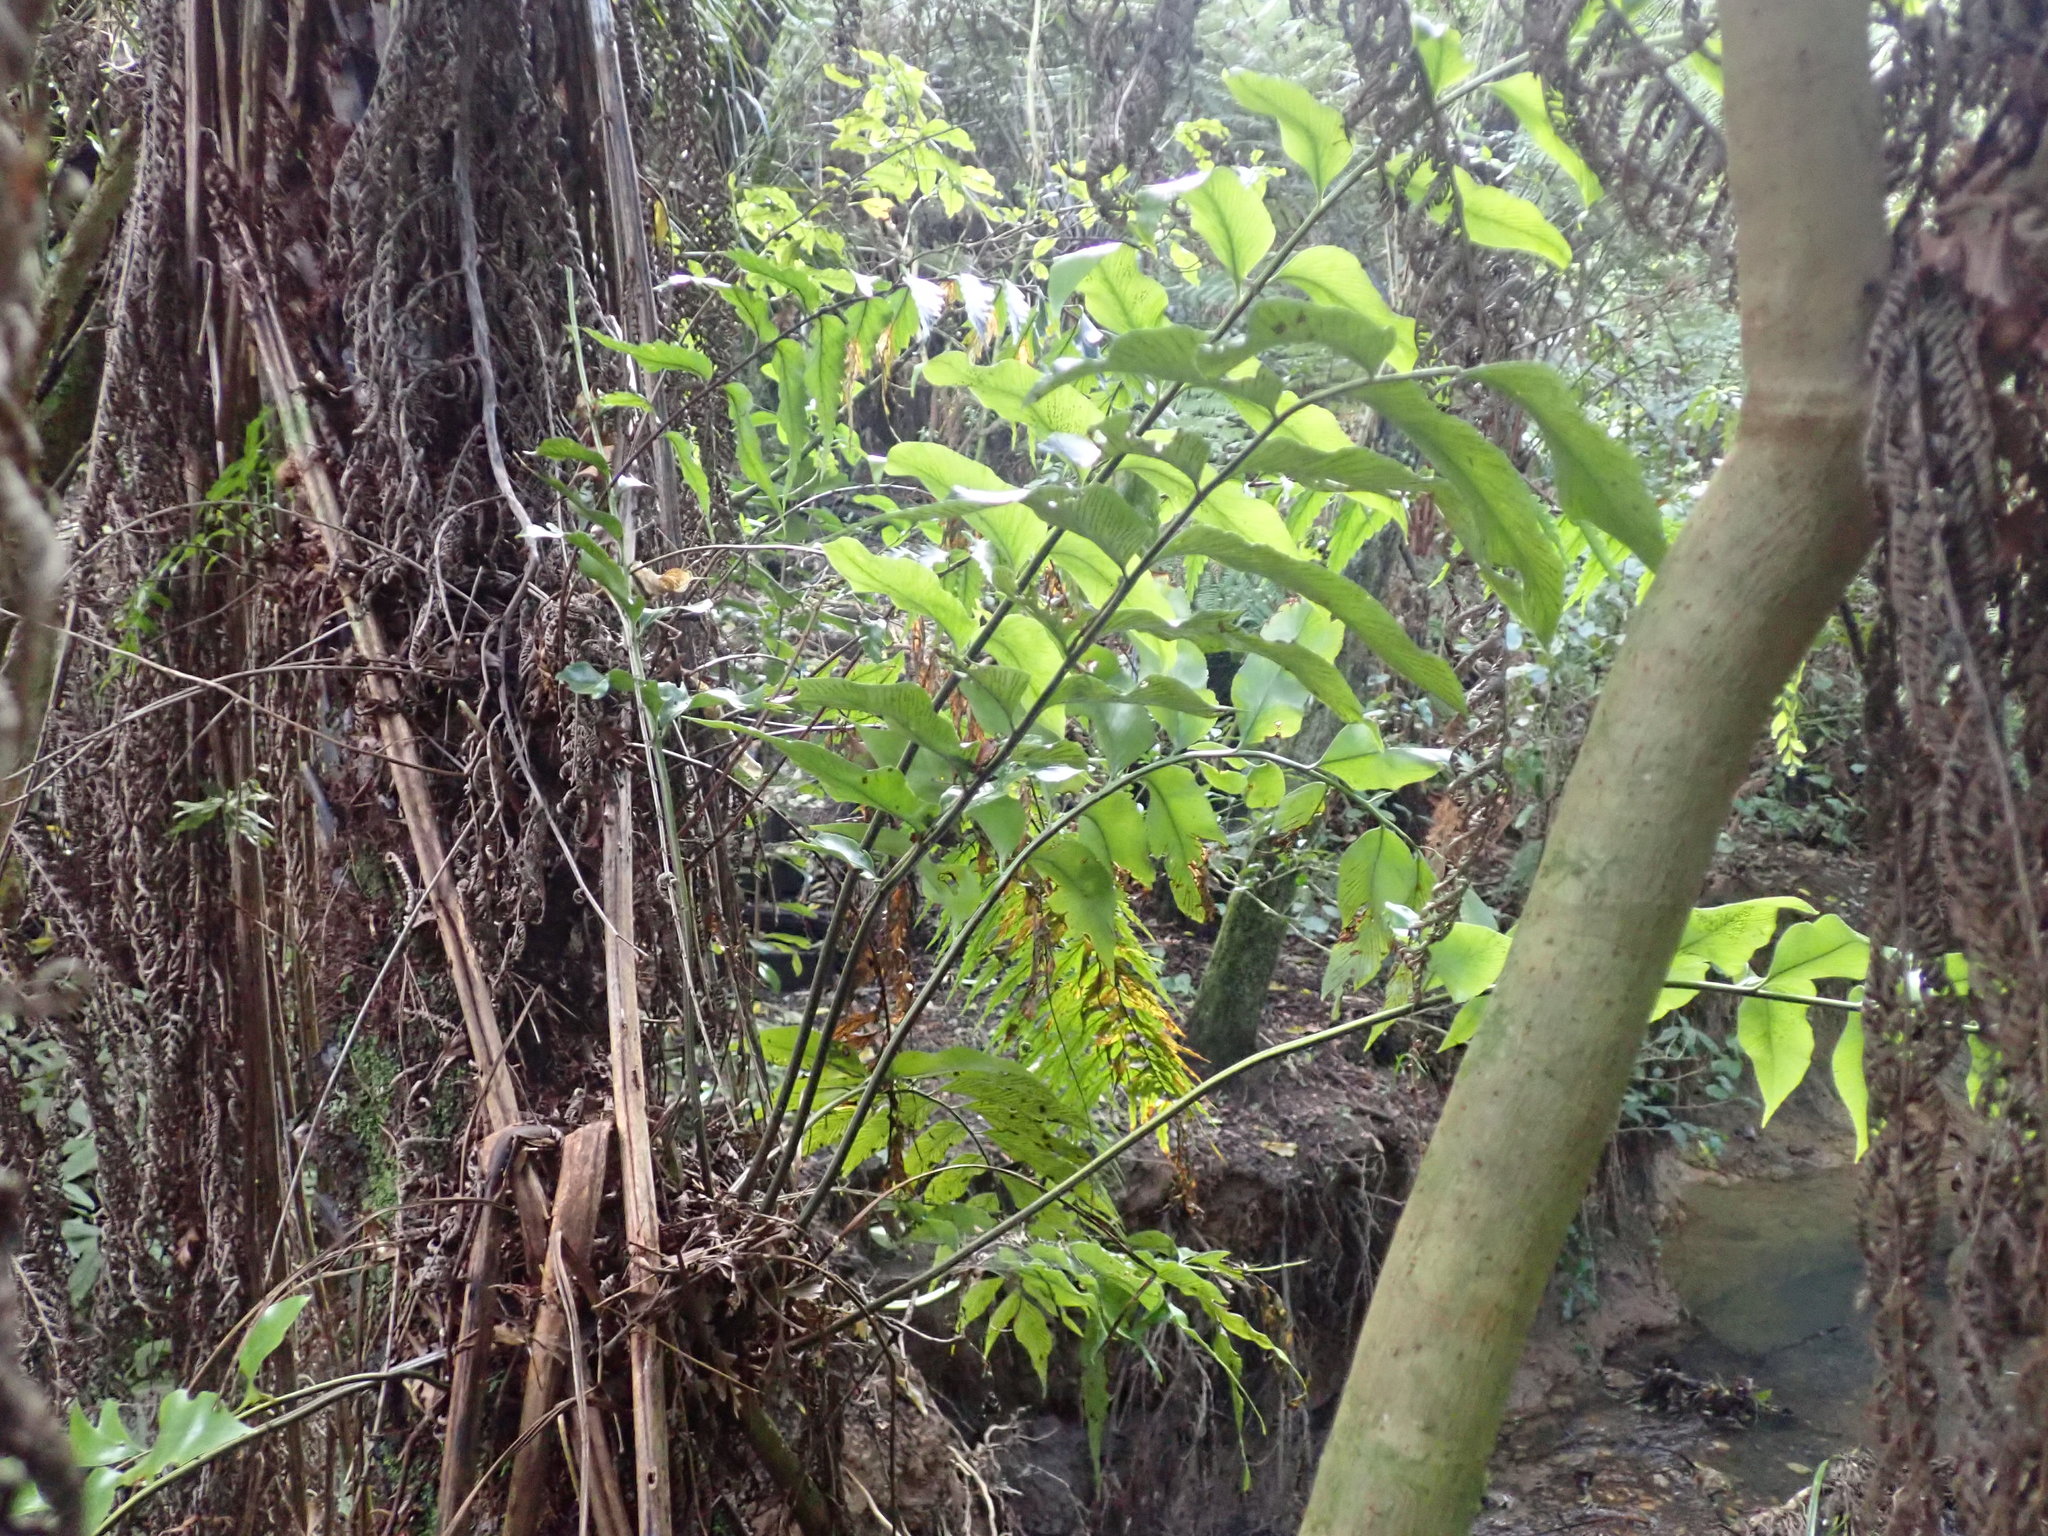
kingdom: Plantae
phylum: Tracheophyta
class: Polypodiopsida
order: Polypodiales
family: Aspleniaceae
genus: Asplenium
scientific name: Asplenium oblongifolium
